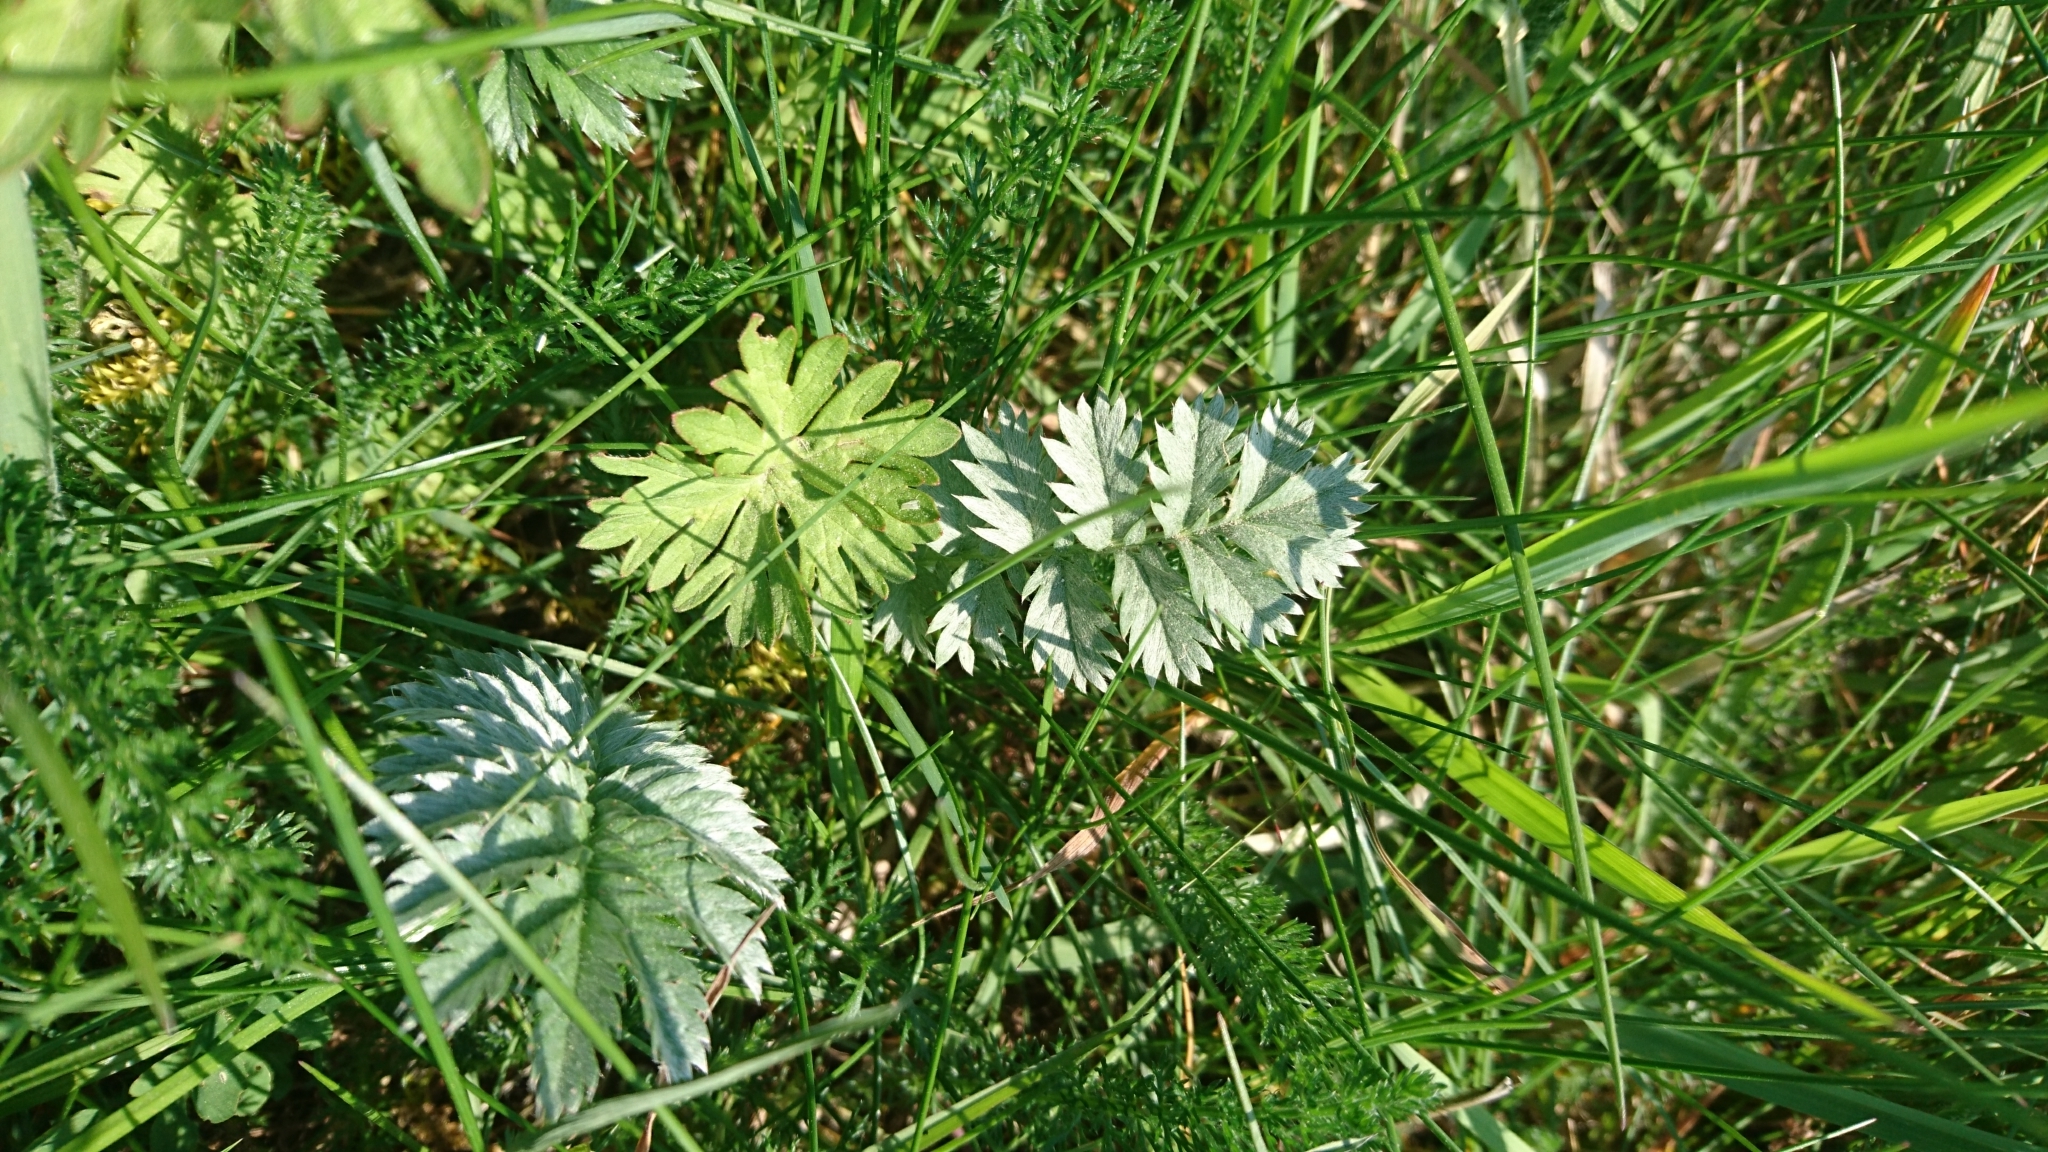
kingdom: Plantae
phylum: Tracheophyta
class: Magnoliopsida
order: Rosales
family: Rosaceae
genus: Argentina
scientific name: Argentina anserina
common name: Common silverweed
